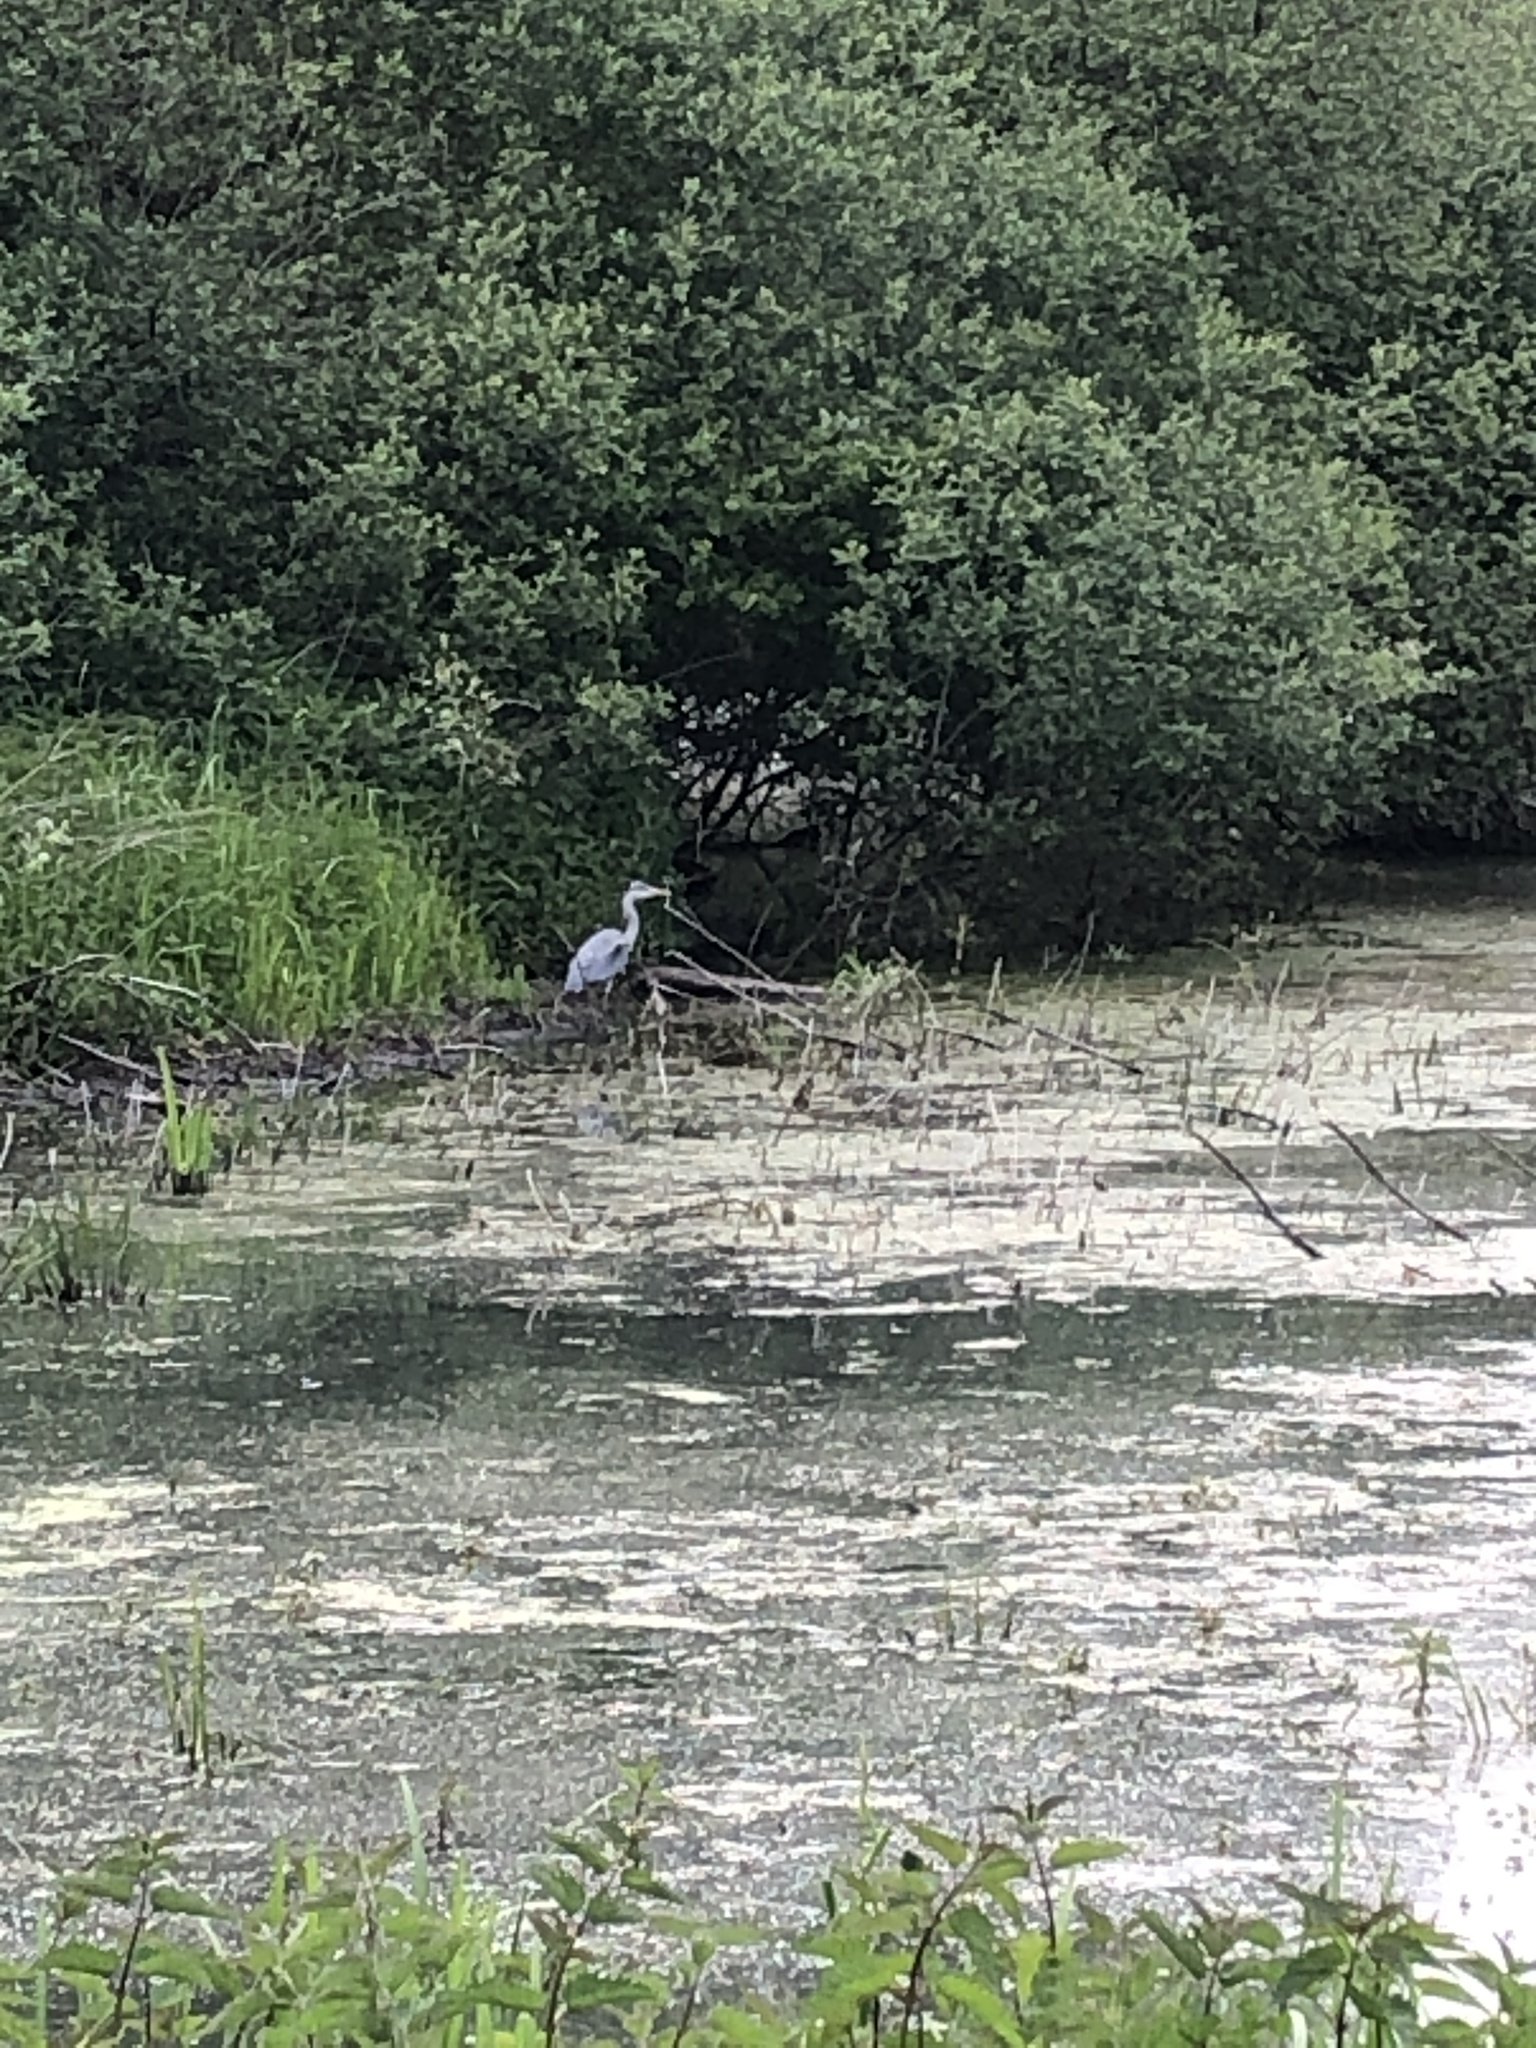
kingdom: Animalia
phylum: Chordata
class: Aves
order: Pelecaniformes
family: Ardeidae
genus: Ardea
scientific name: Ardea cinerea
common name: Grey heron
